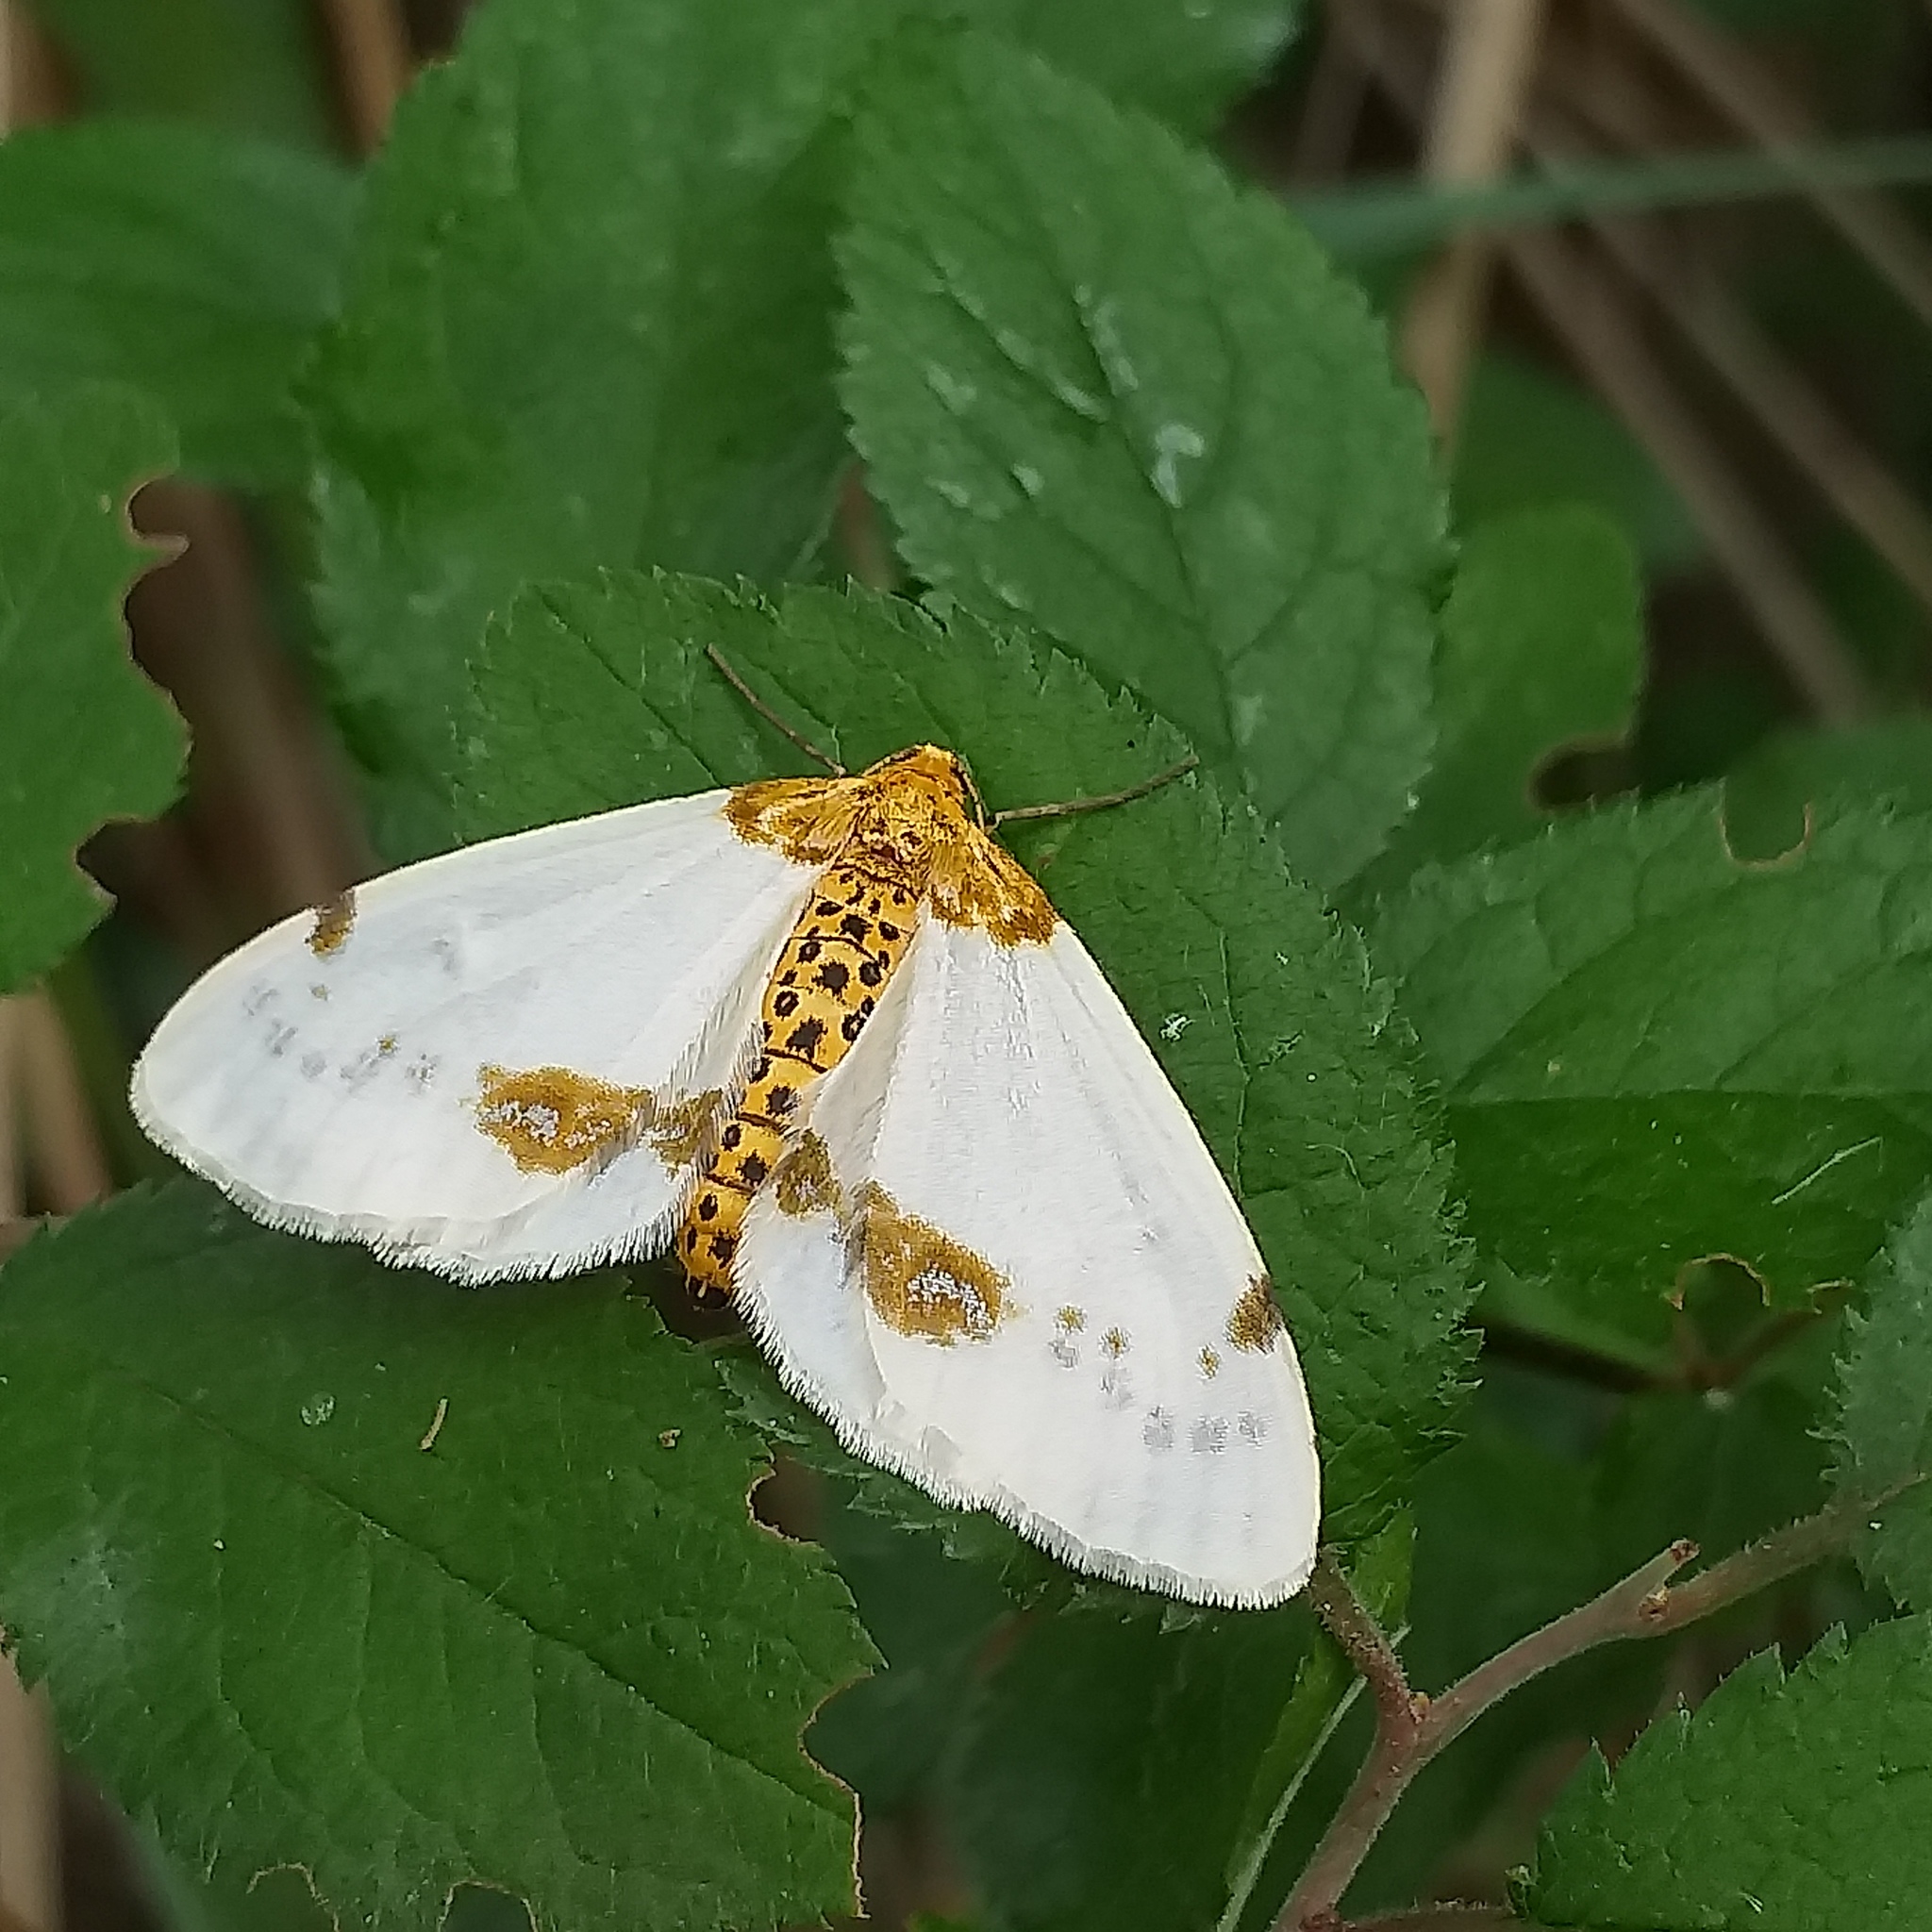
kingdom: Animalia
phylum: Arthropoda
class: Insecta
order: Lepidoptera
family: Geometridae
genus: Abraxas
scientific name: Abraxas pantaria
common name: Light magpie
